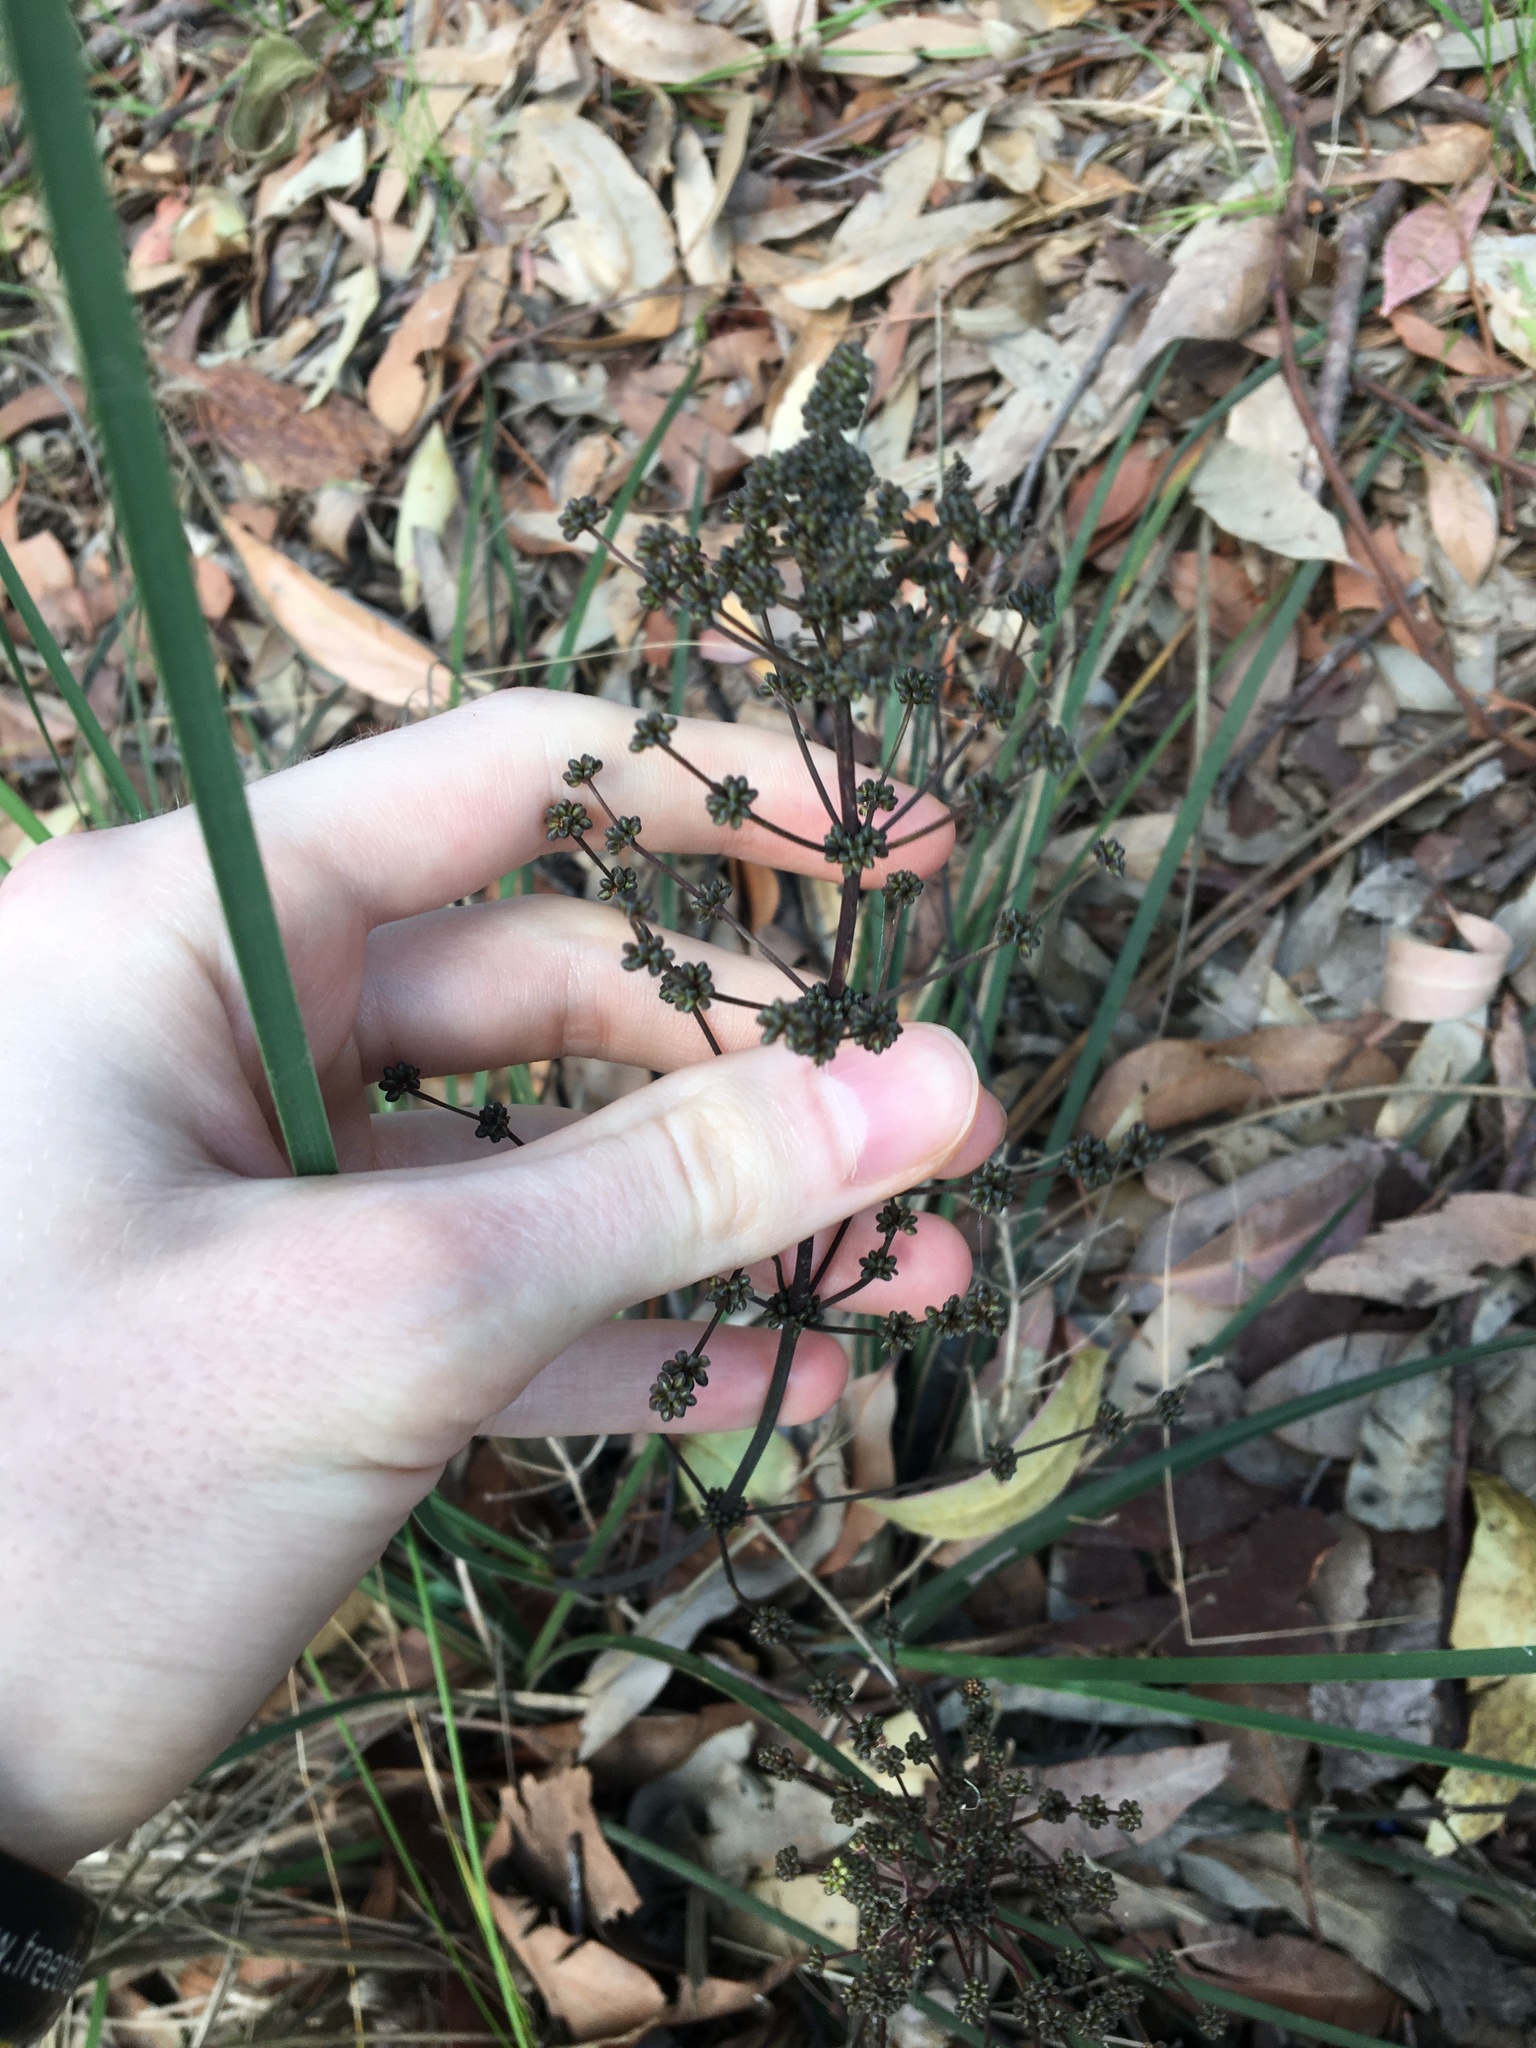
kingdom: Plantae
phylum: Tracheophyta
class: Liliopsida
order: Asparagales
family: Asparagaceae
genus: Lomandra
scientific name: Lomandra multiflora
